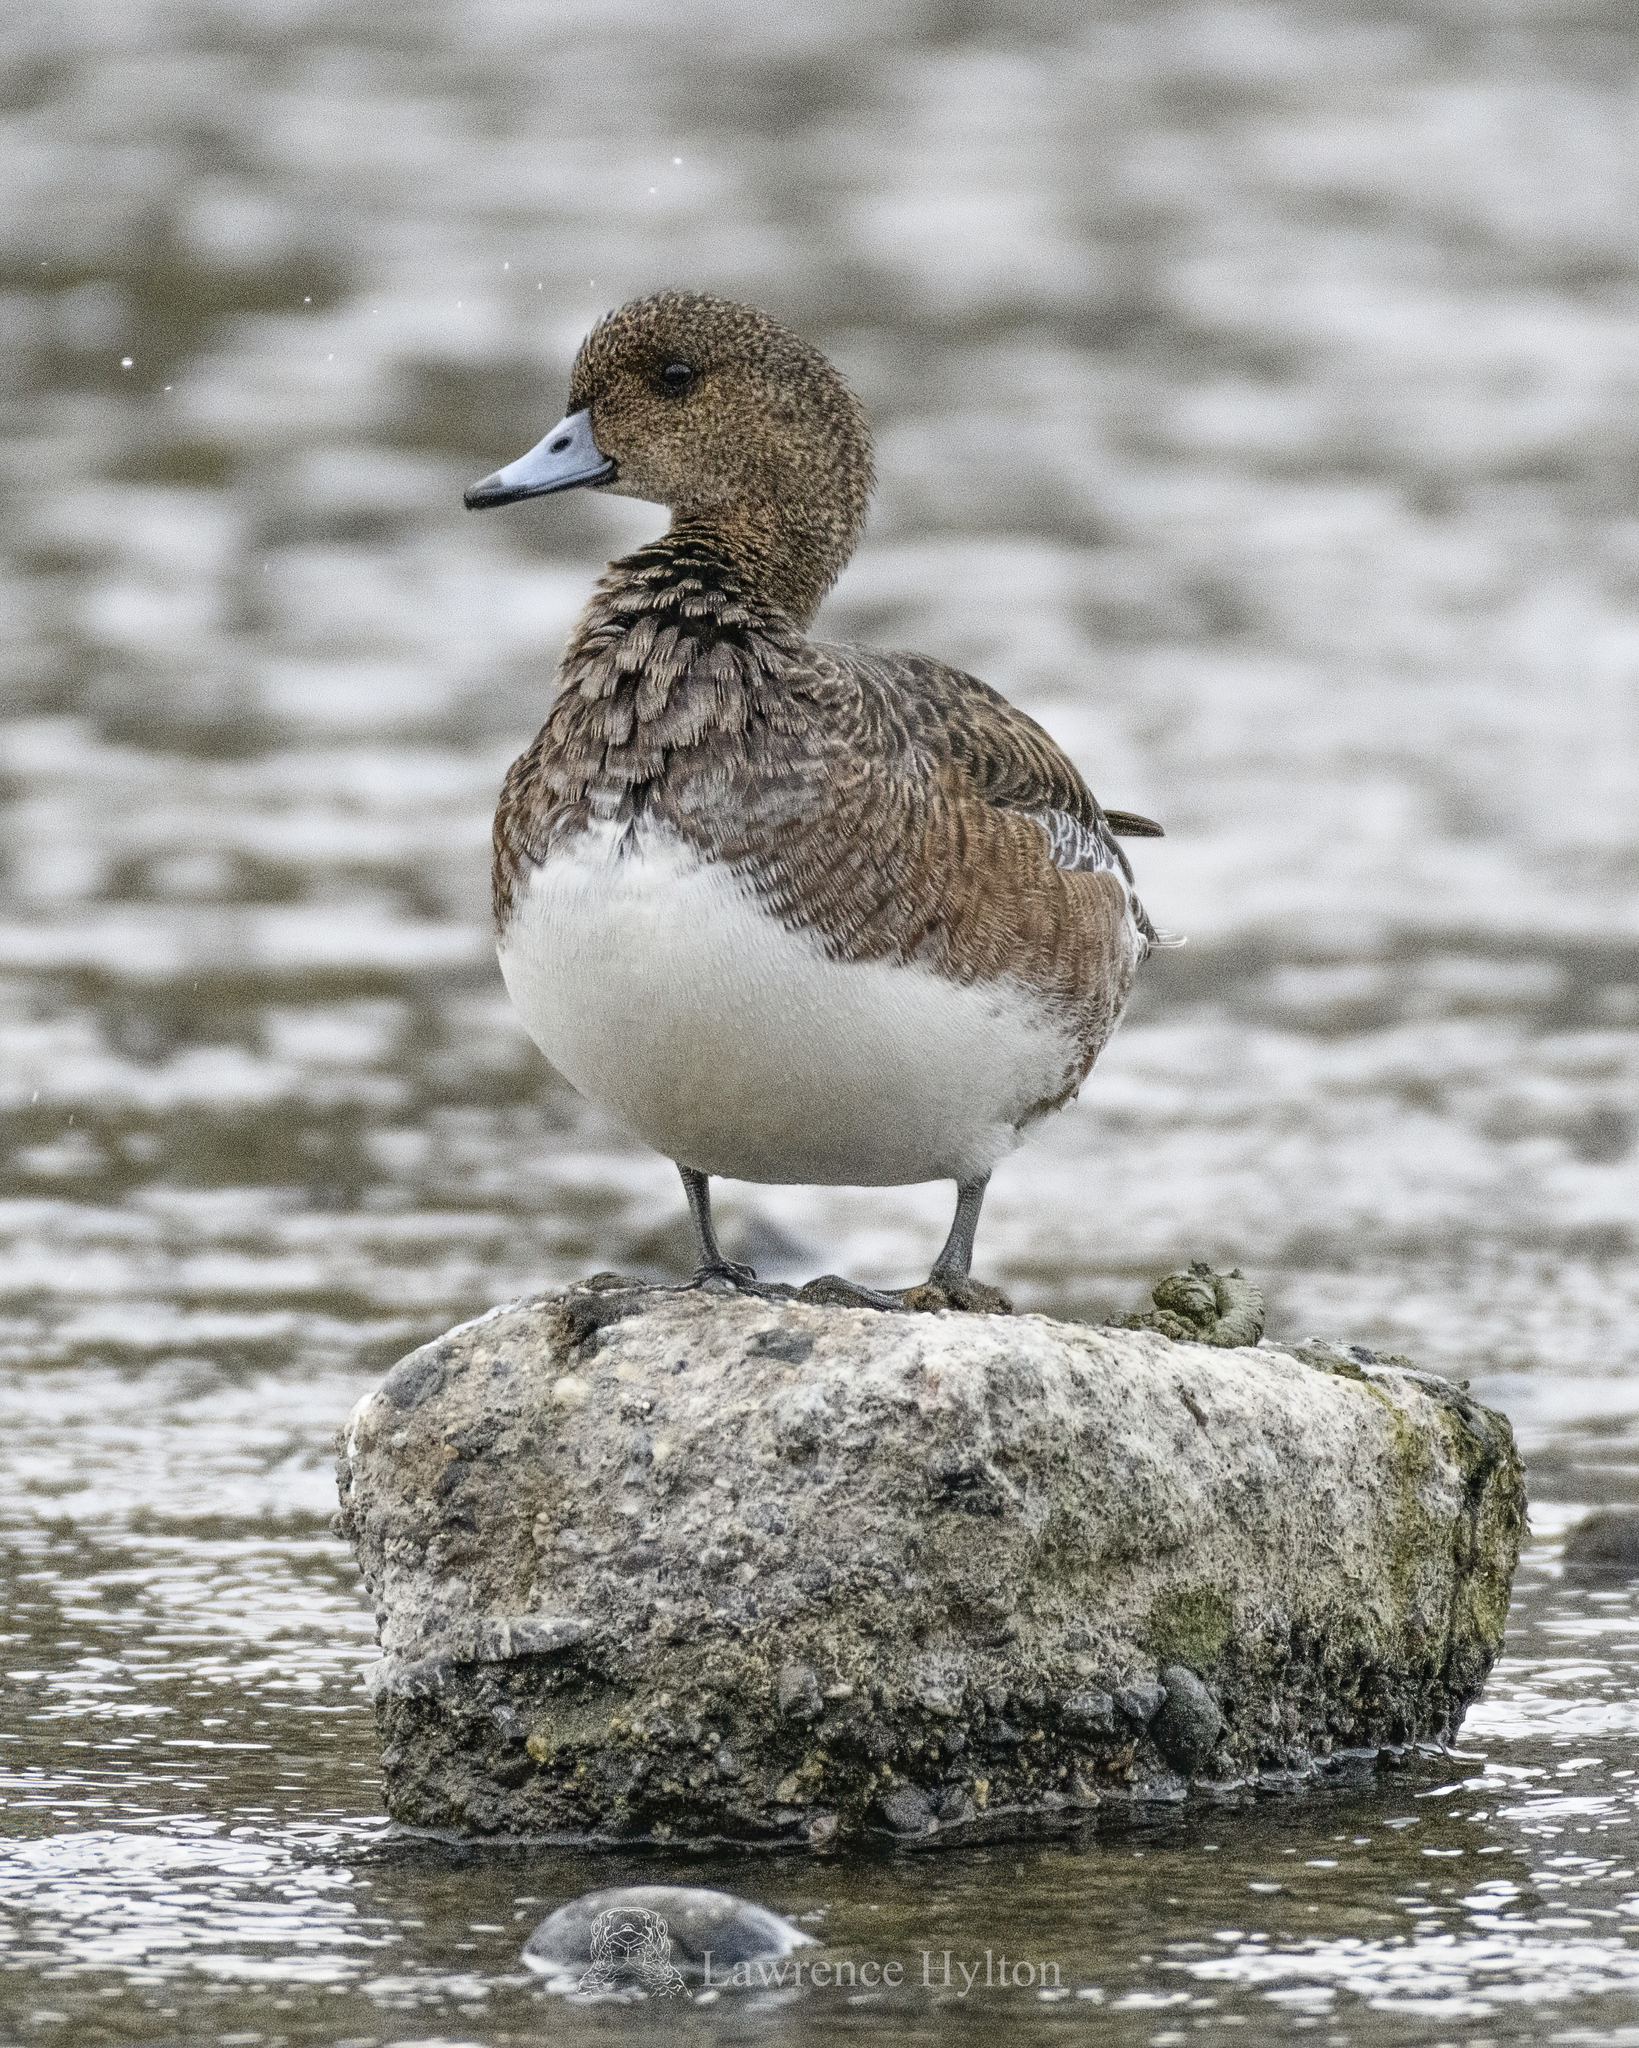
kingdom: Animalia
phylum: Chordata
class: Aves
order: Anseriformes
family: Anatidae
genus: Mareca
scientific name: Mareca penelope
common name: Eurasian wigeon
